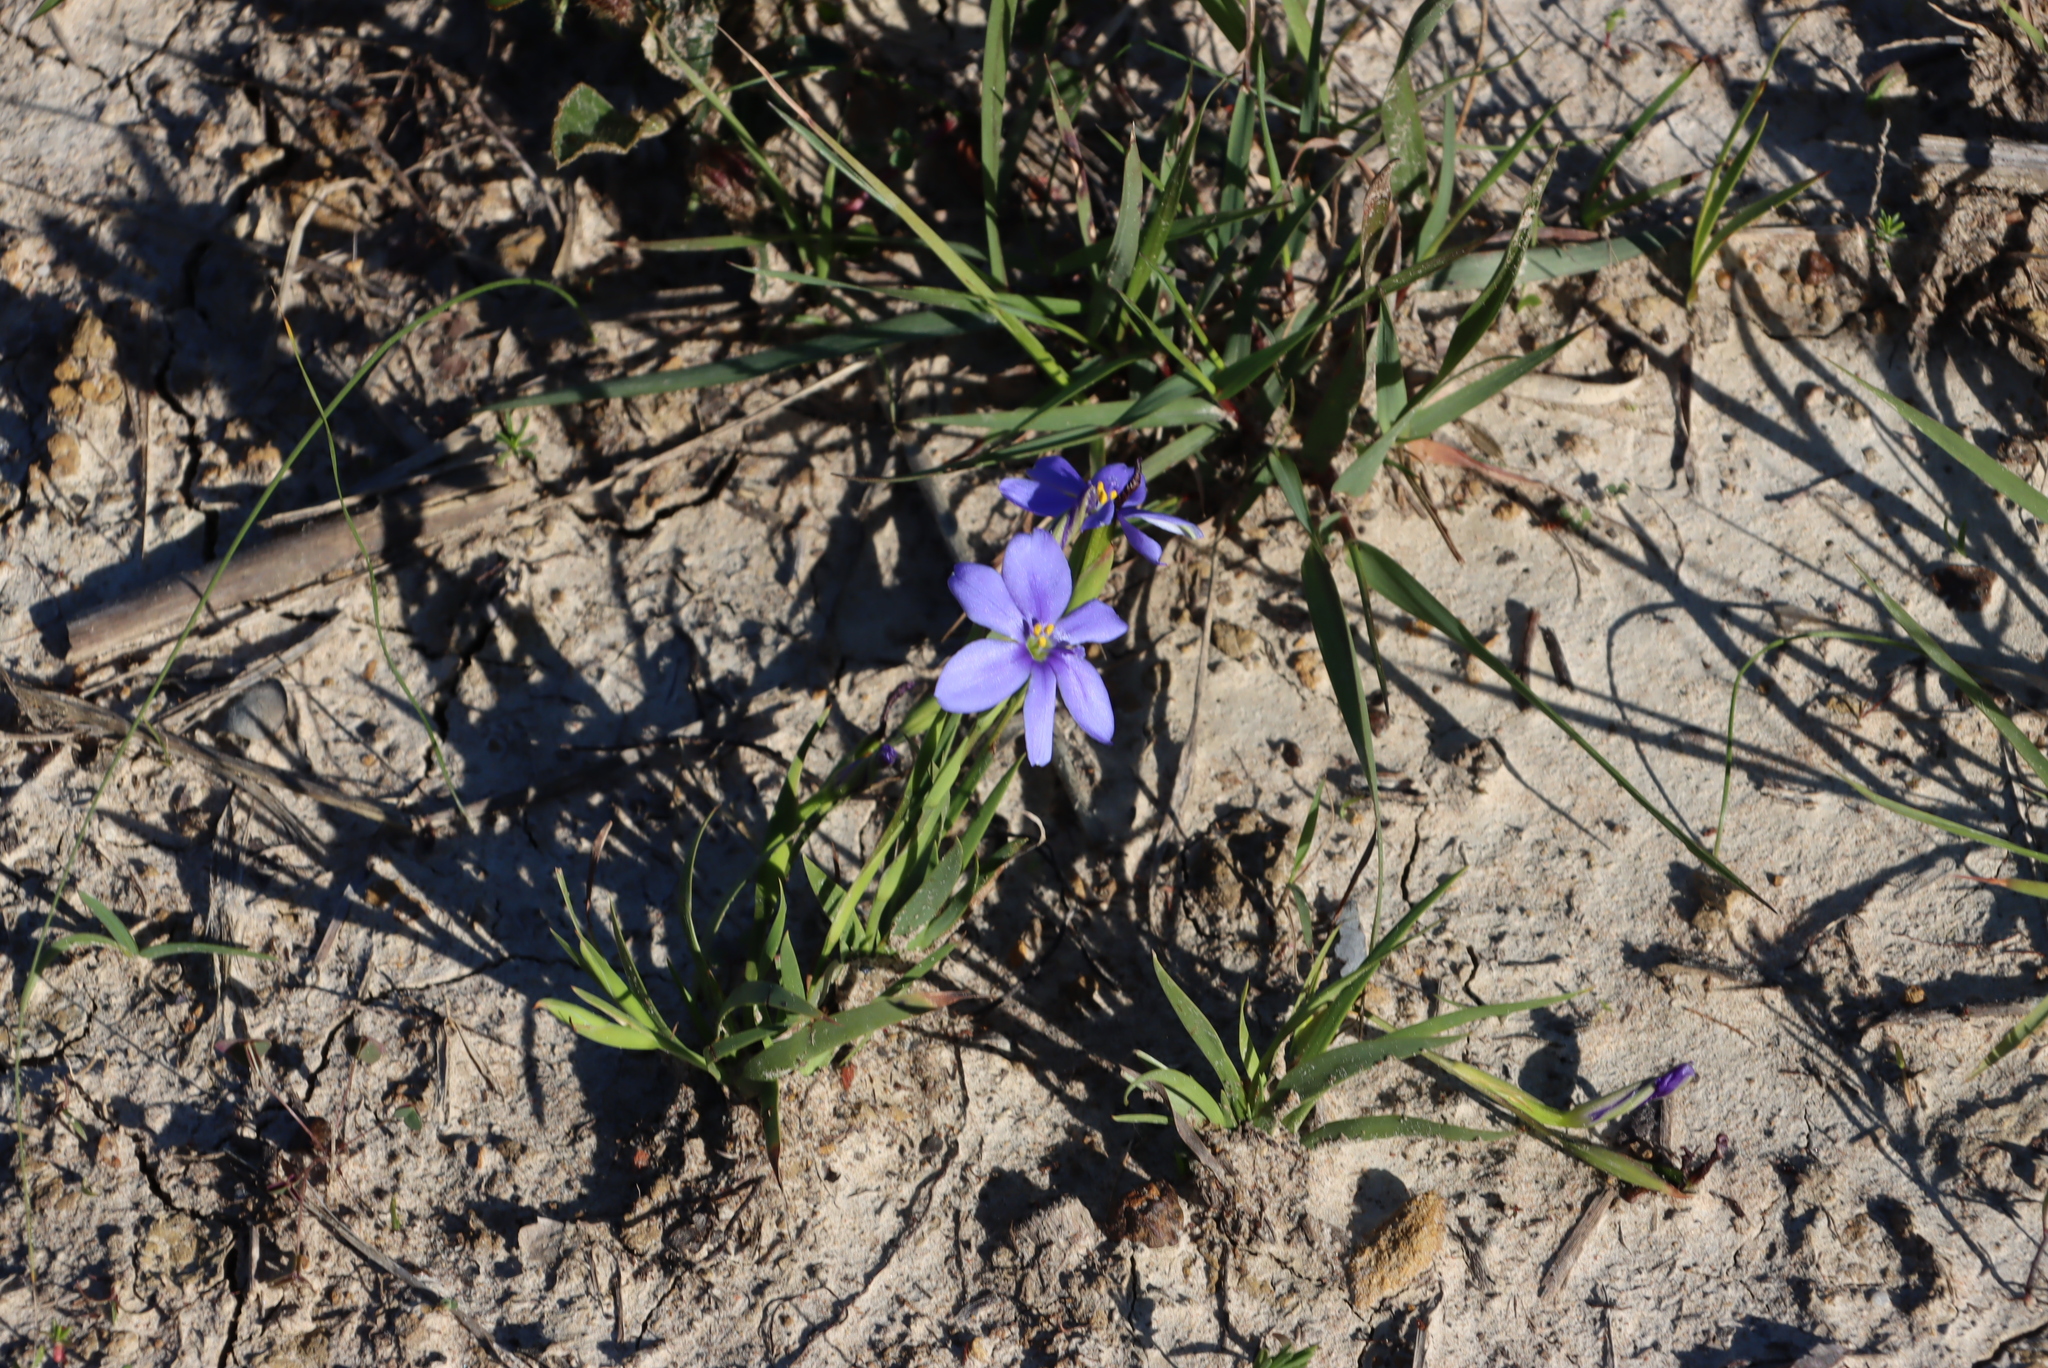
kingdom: Plantae
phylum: Tracheophyta
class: Liliopsida
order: Asparagales
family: Iridaceae
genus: Aristea
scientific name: Aristea pusilla
